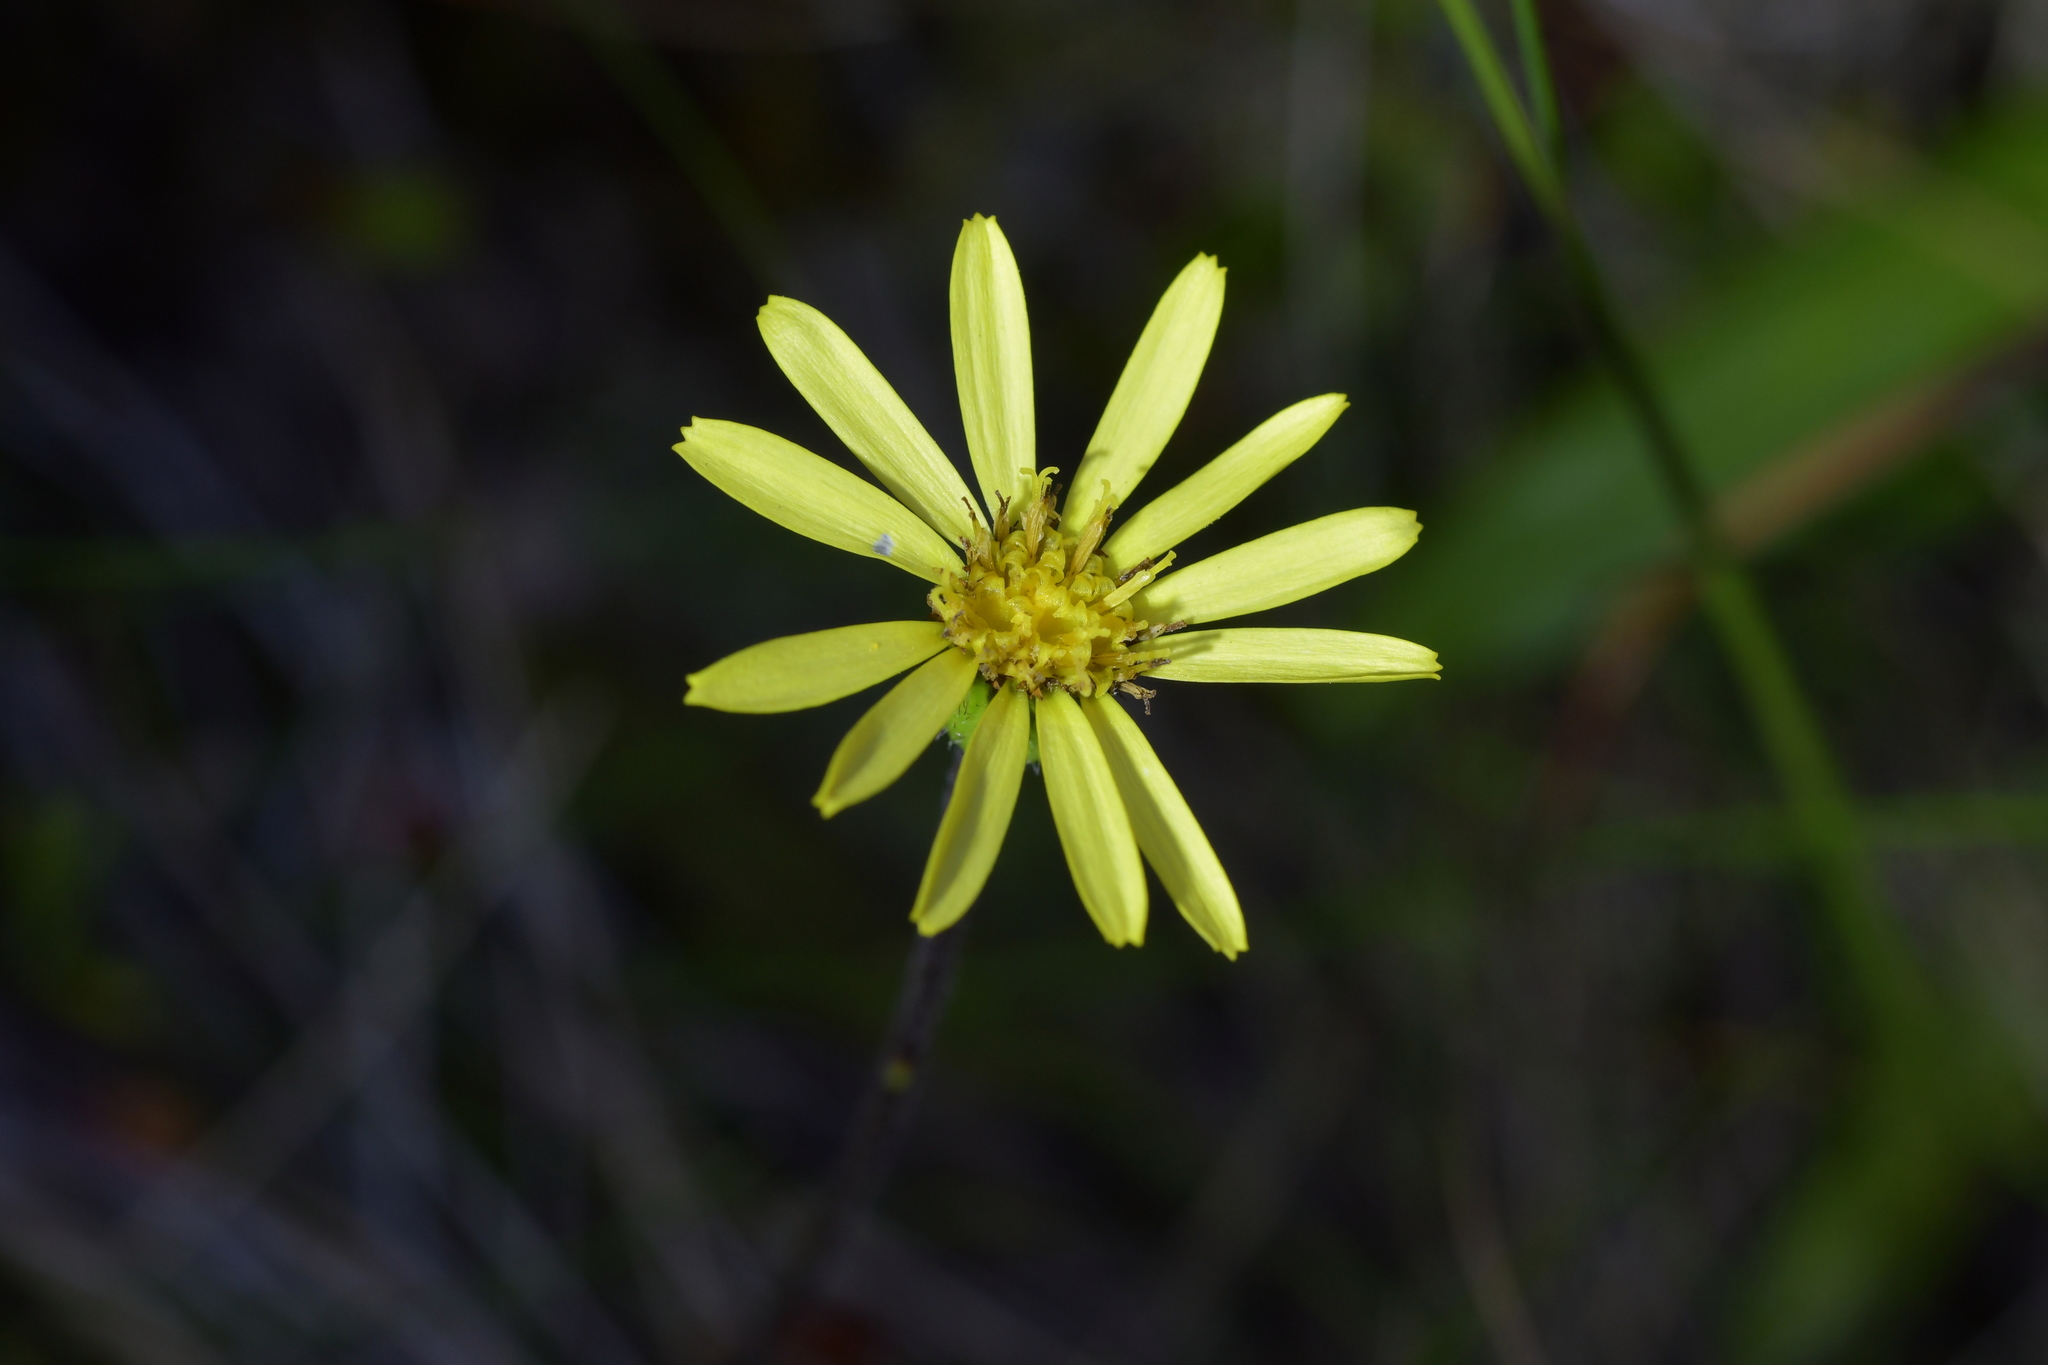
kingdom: Plantae
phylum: Tracheophyta
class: Magnoliopsida
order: Asterales
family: Asteraceae
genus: Brachyglottis
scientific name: Brachyglottis bellidioides
